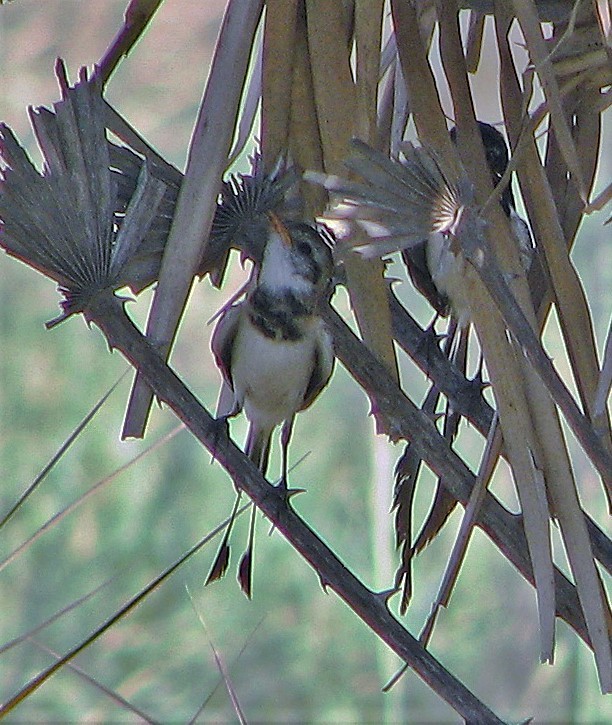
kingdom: Animalia
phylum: Chordata
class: Aves
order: Passeriformes
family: Tyrannidae
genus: Alectrurus
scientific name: Alectrurus risora
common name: Strange-tailed tyrant
